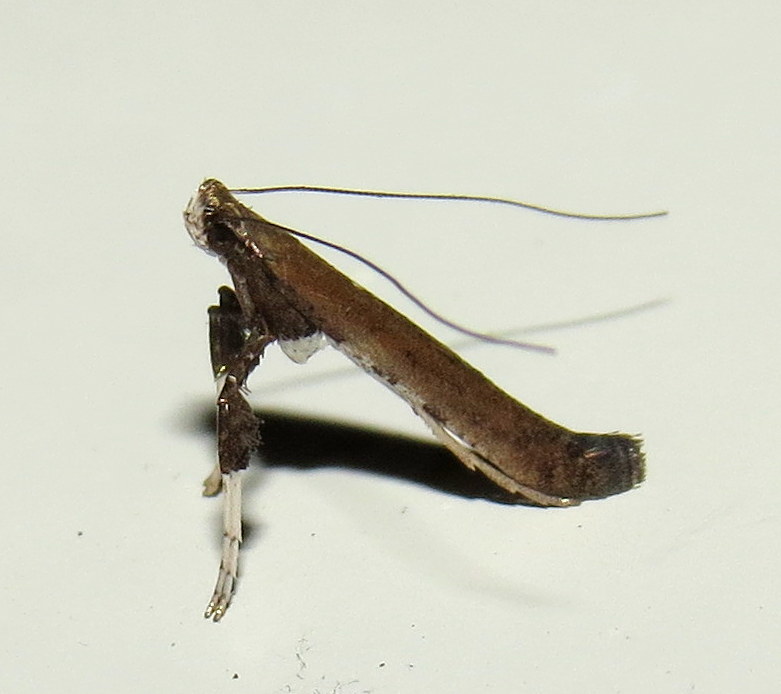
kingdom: Animalia
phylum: Arthropoda
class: Insecta
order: Lepidoptera
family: Gracillariidae
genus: Caloptilia
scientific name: Caloptilia rhoifoliella
